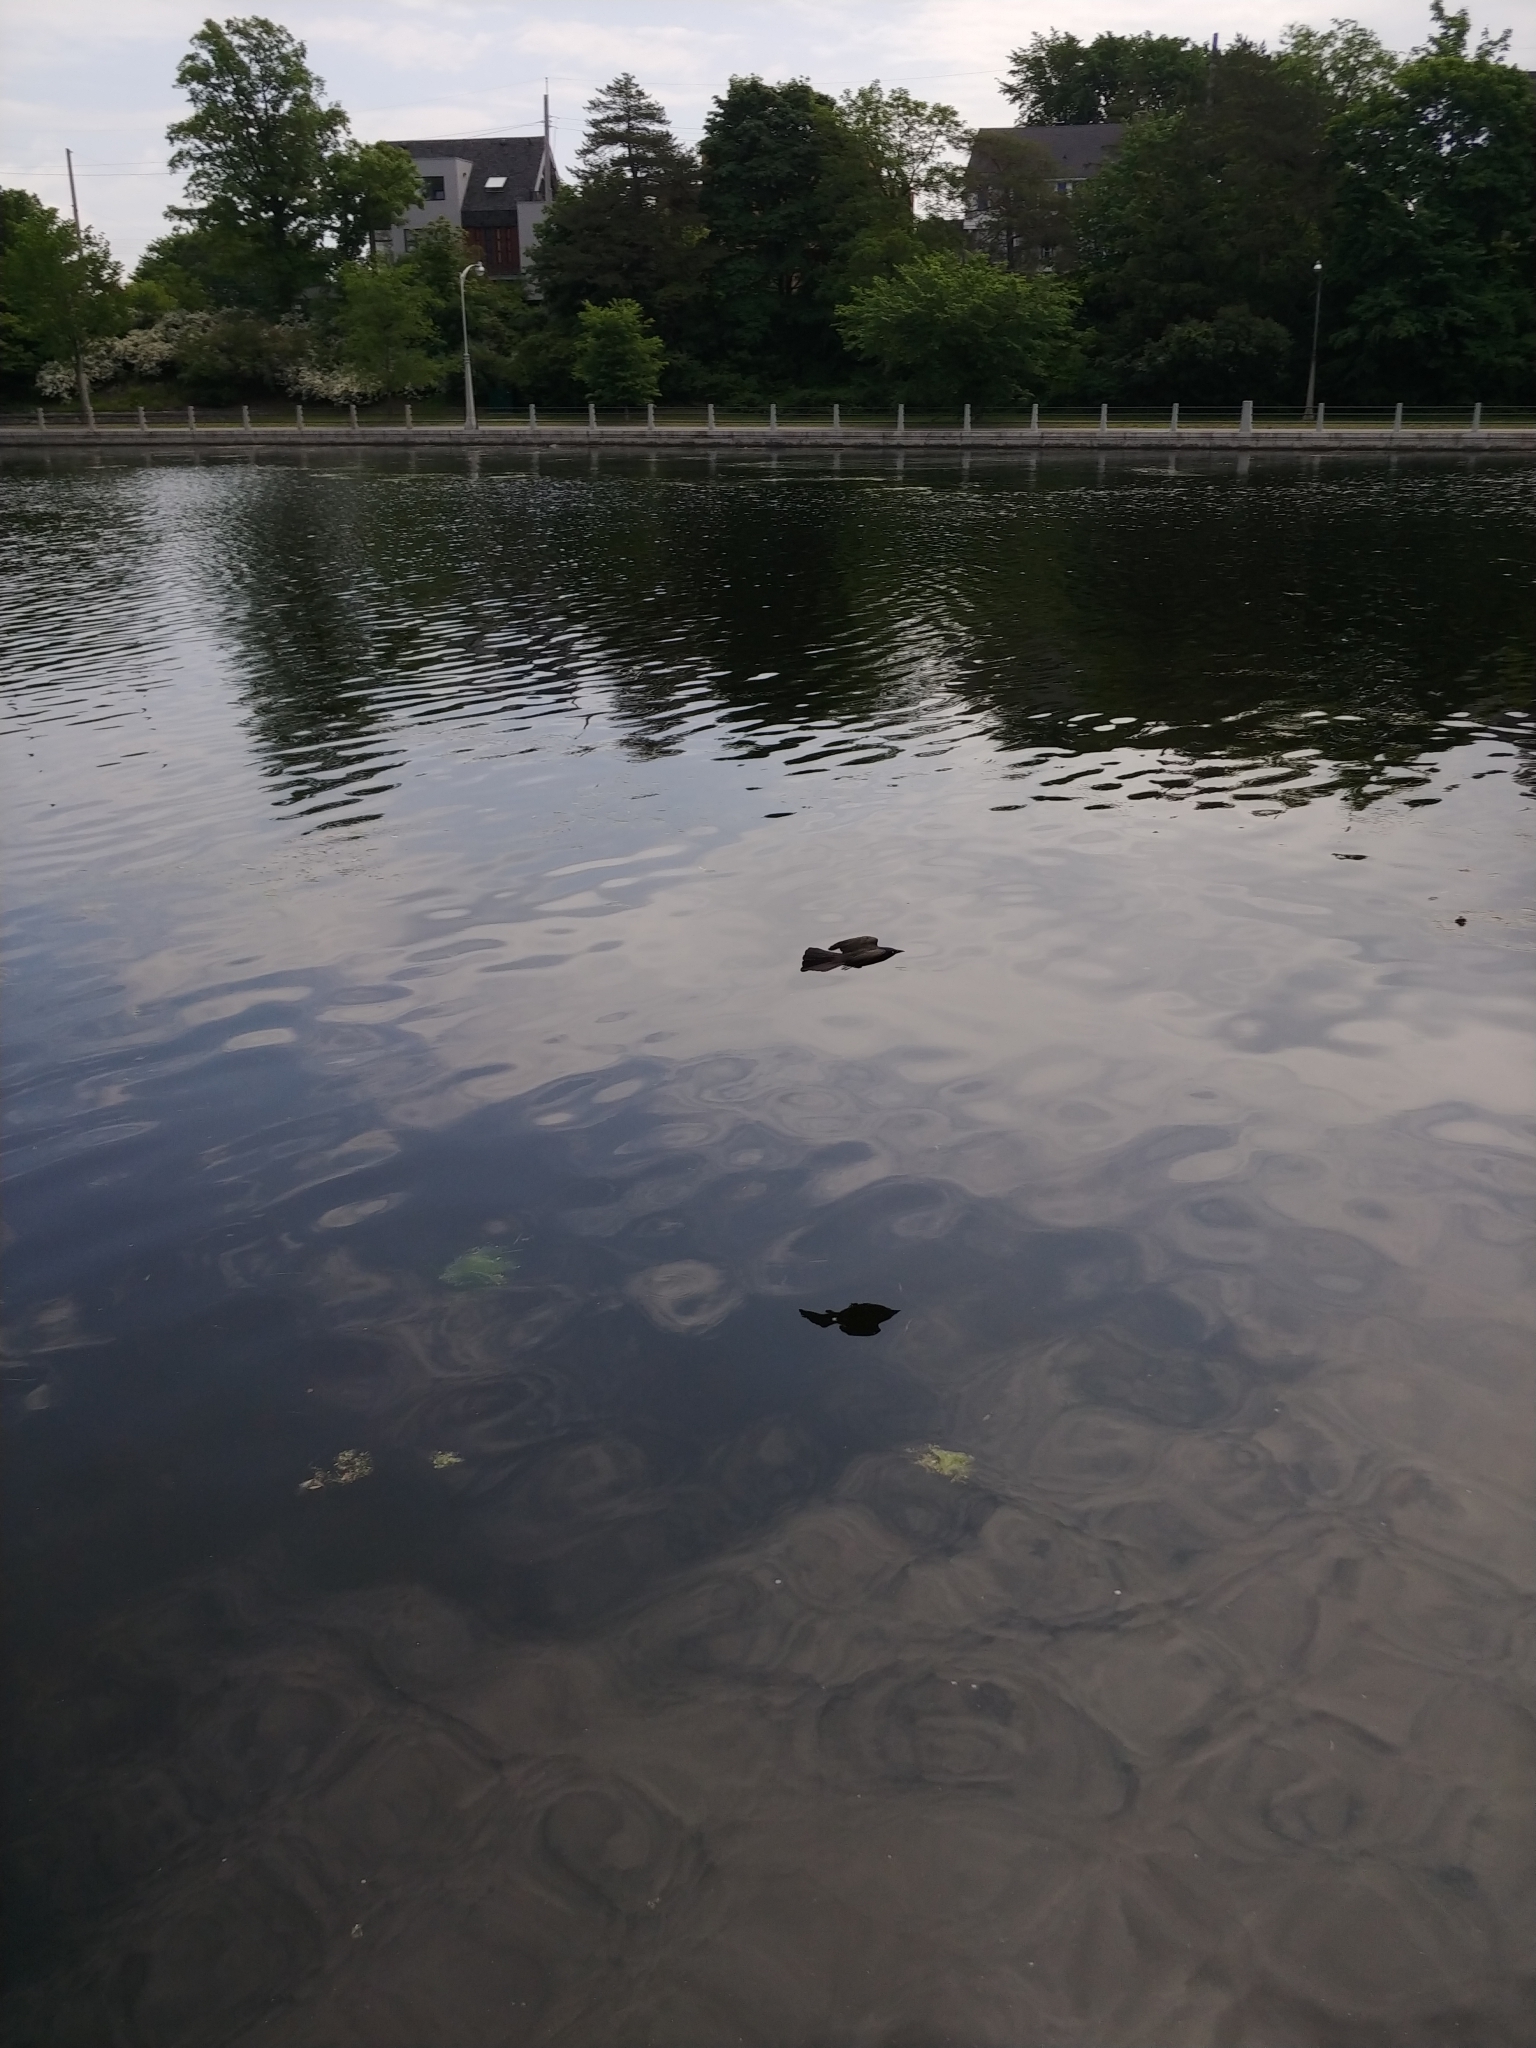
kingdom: Animalia
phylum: Chordata
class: Aves
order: Passeriformes
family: Icteridae
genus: Quiscalus
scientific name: Quiscalus quiscula
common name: Common grackle
